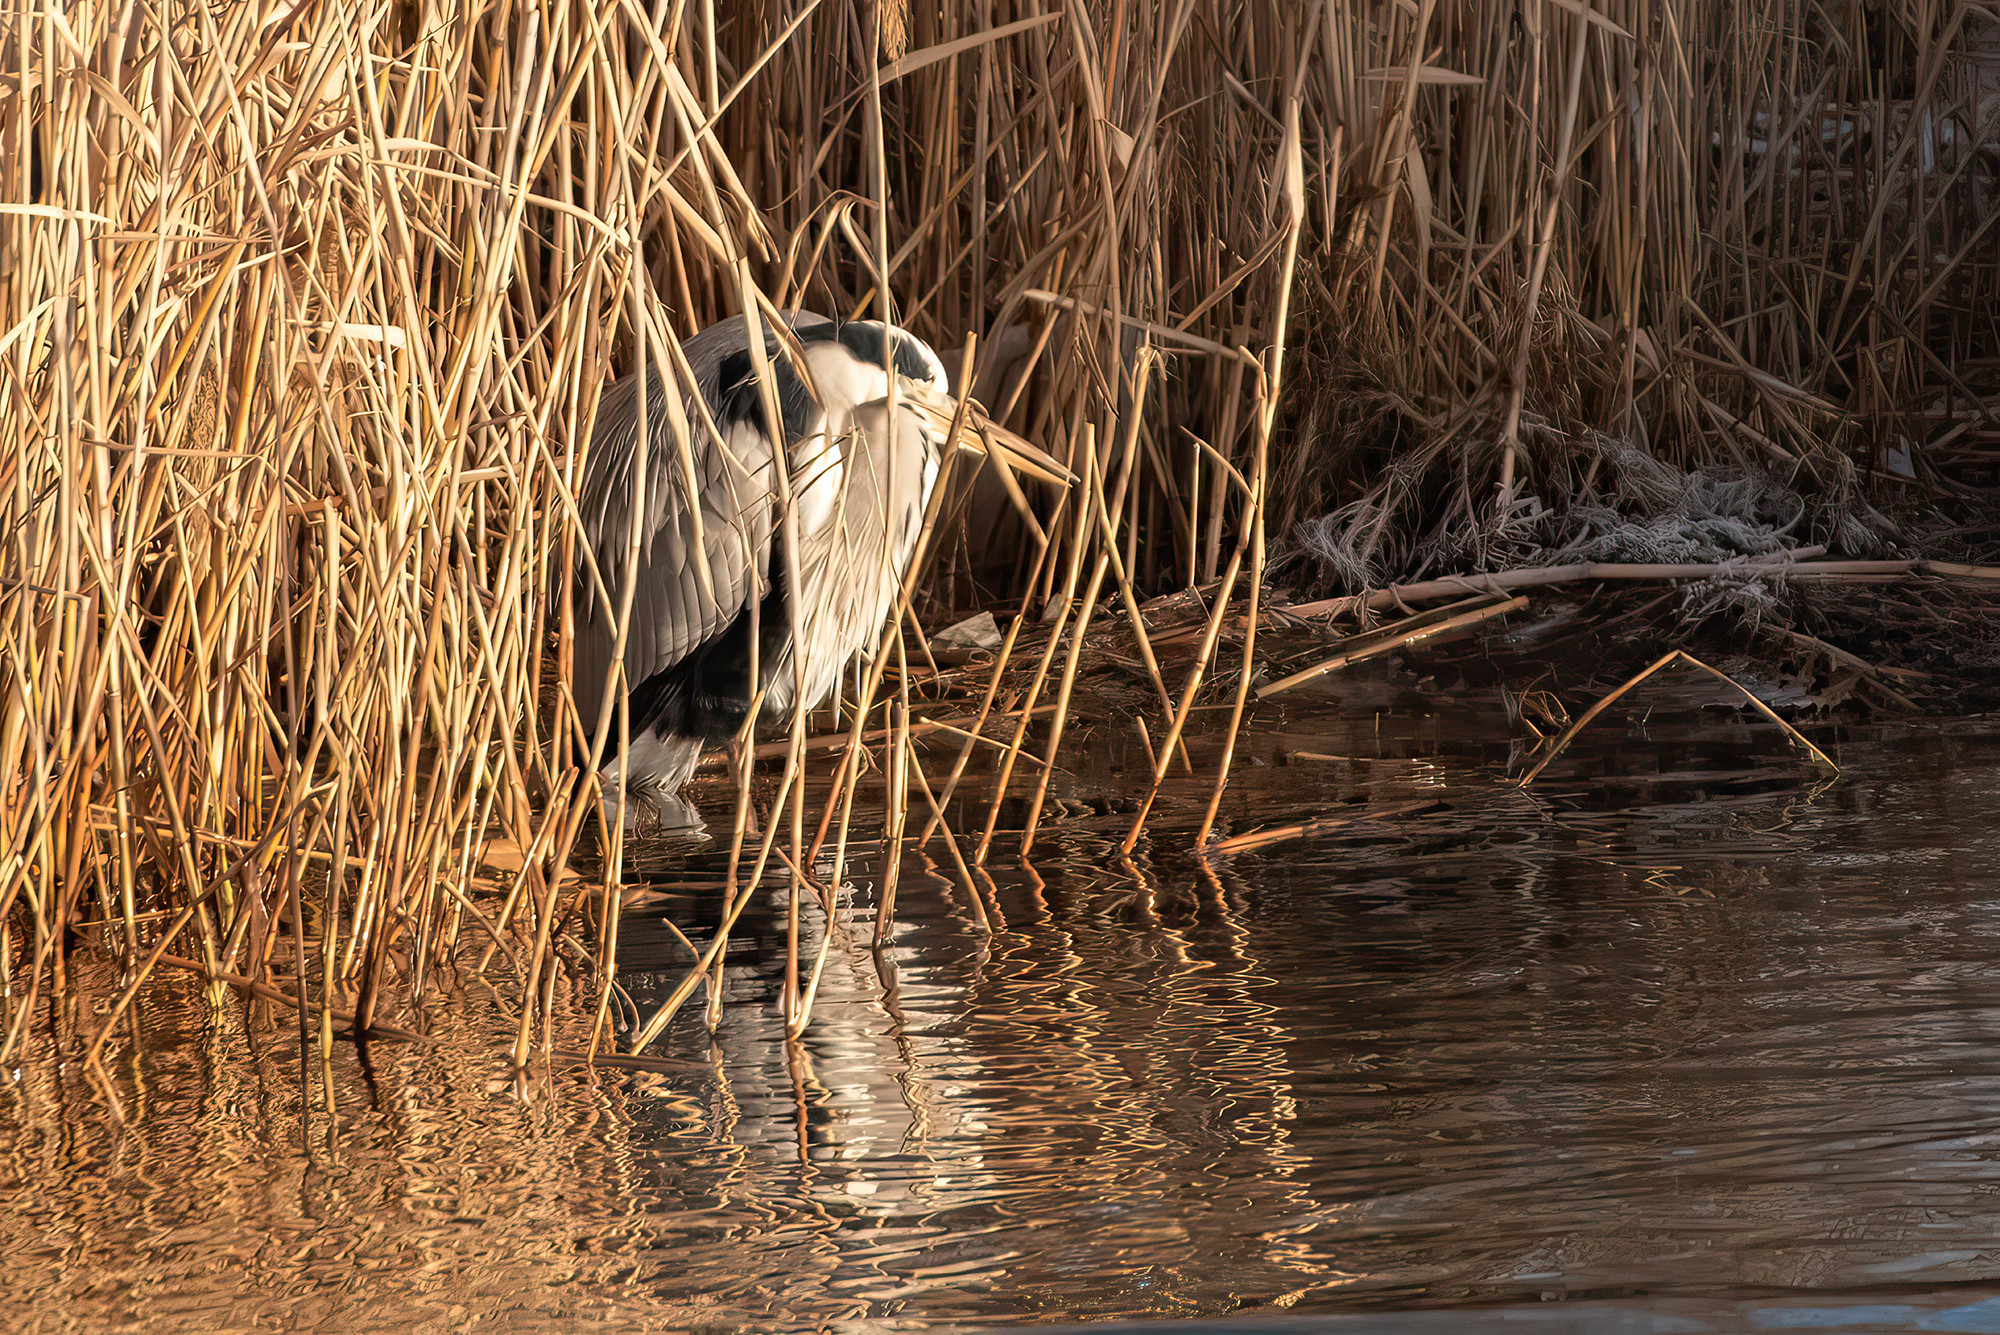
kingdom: Animalia
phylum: Chordata
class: Aves
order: Pelecaniformes
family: Ardeidae
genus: Ardea
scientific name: Ardea cinerea
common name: Grey heron
